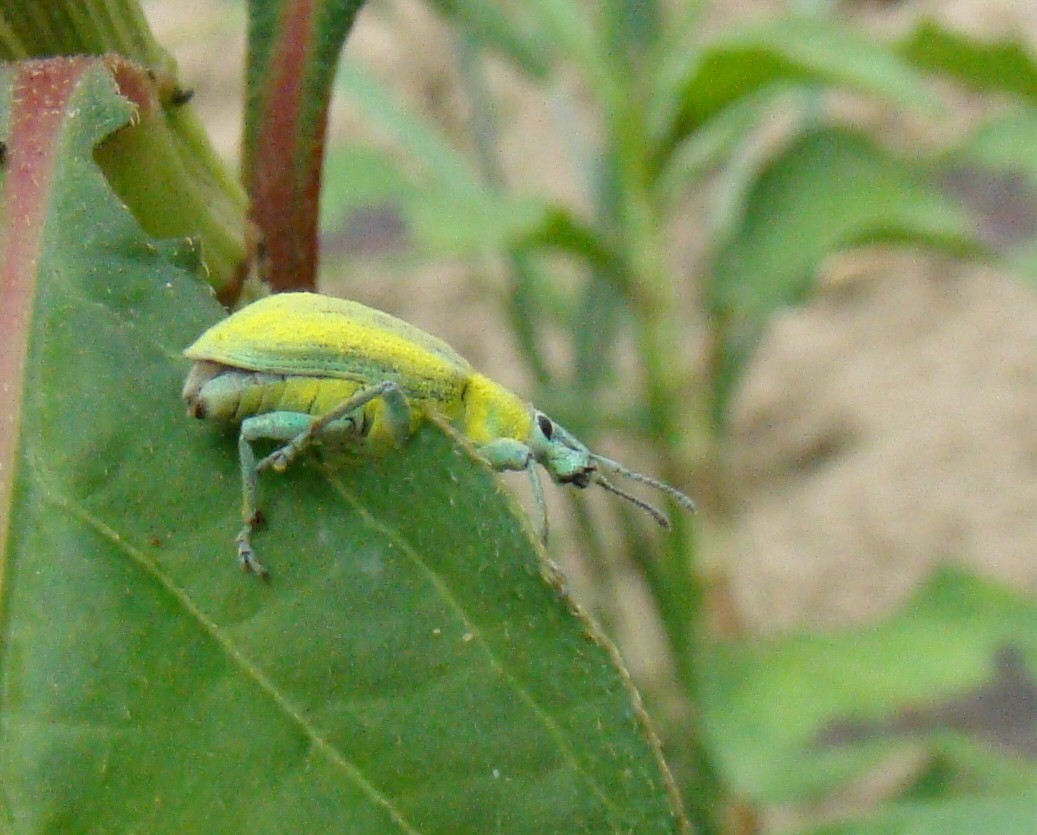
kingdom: Animalia
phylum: Arthropoda
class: Insecta
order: Coleoptera
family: Curculionidae
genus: Chlorophanus
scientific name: Chlorophanus micans
